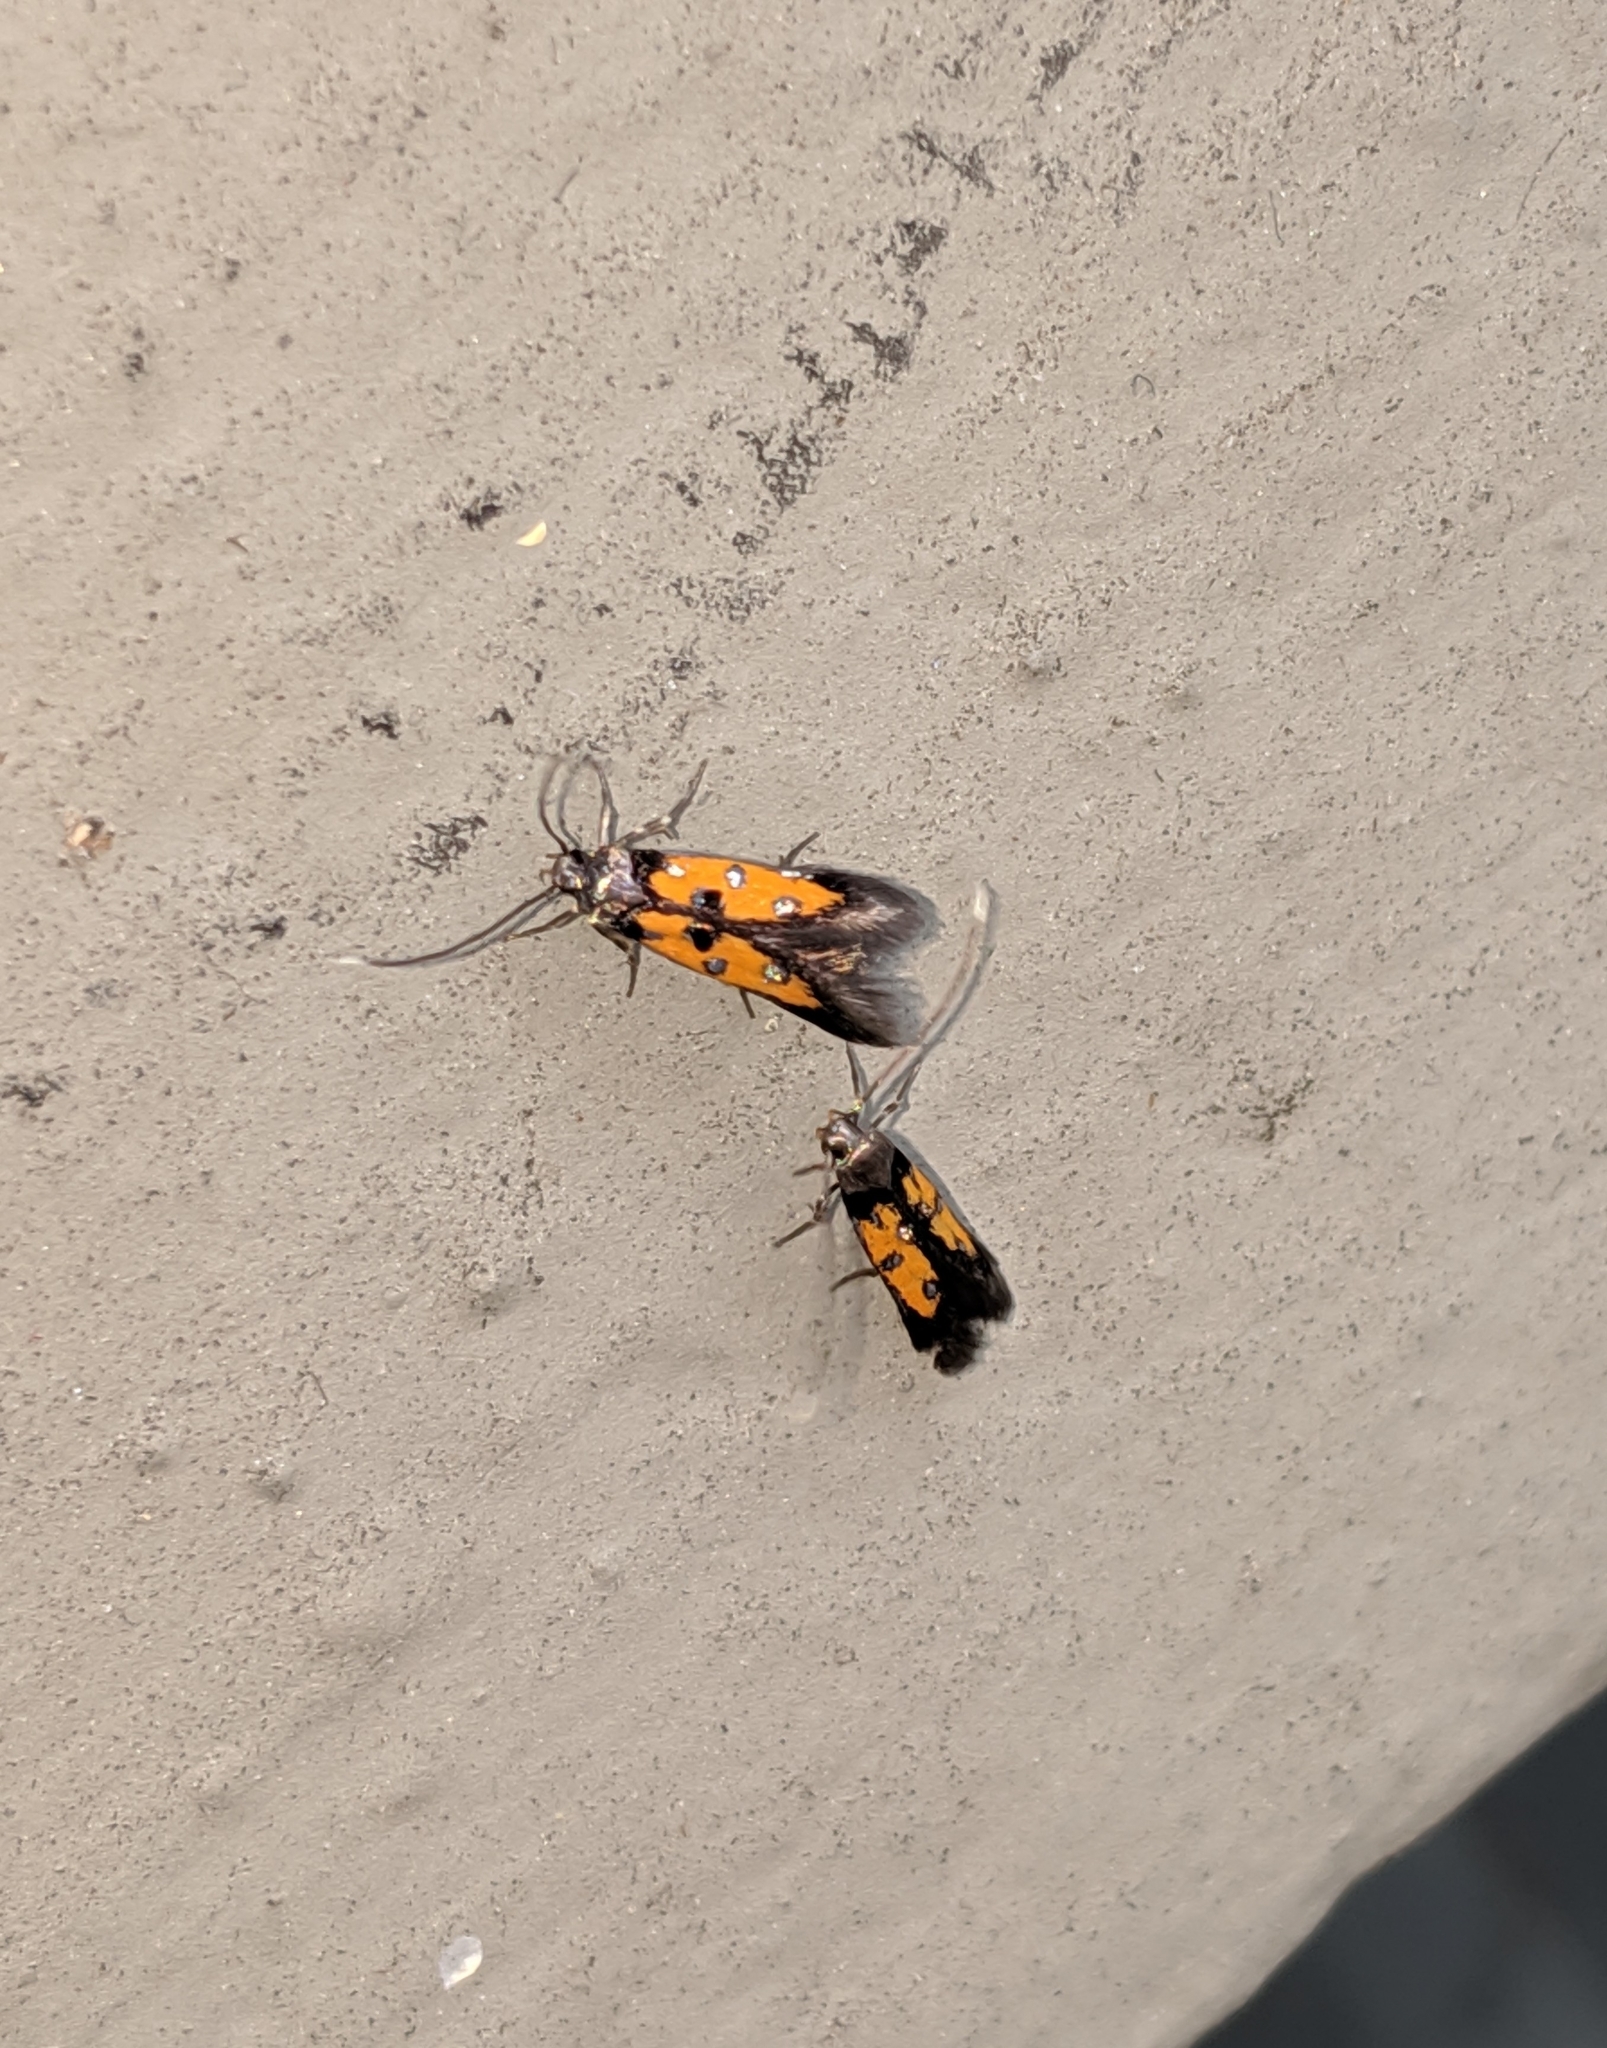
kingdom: Animalia
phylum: Arthropoda
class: Insecta
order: Lepidoptera
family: Elachistidae
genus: Chrysoclista
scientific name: Chrysoclista linneela
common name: Lime cosmet
